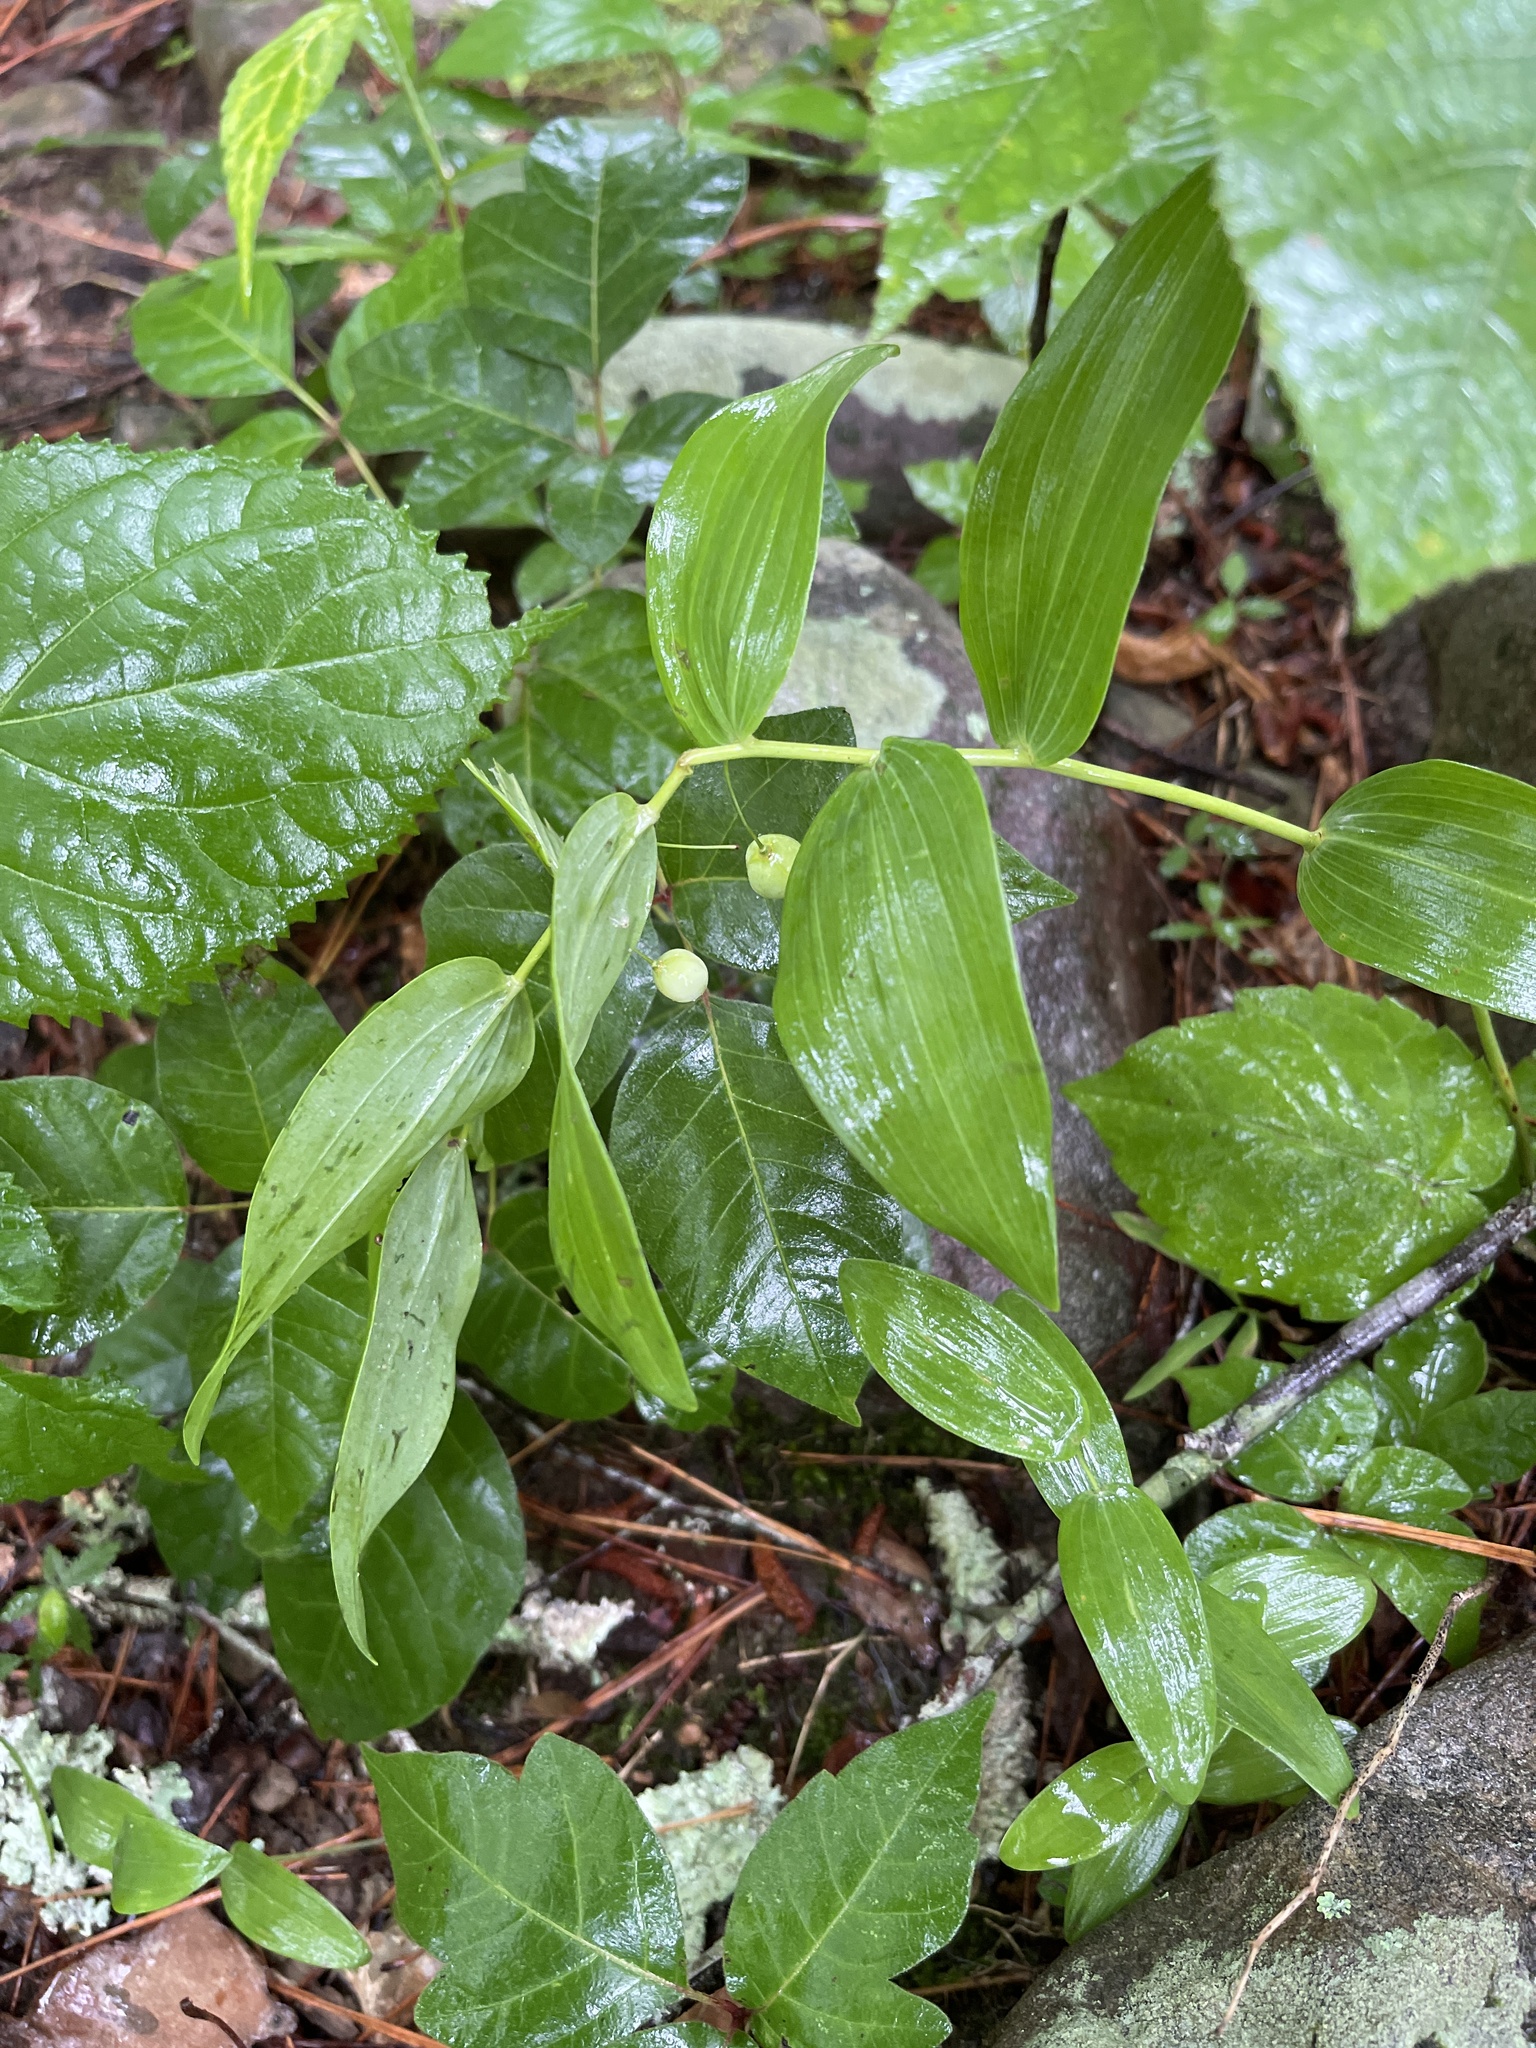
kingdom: Plantae
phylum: Tracheophyta
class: Liliopsida
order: Asparagales
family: Asparagaceae
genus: Polygonatum
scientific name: Polygonatum biflorum
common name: American solomon's-seal
